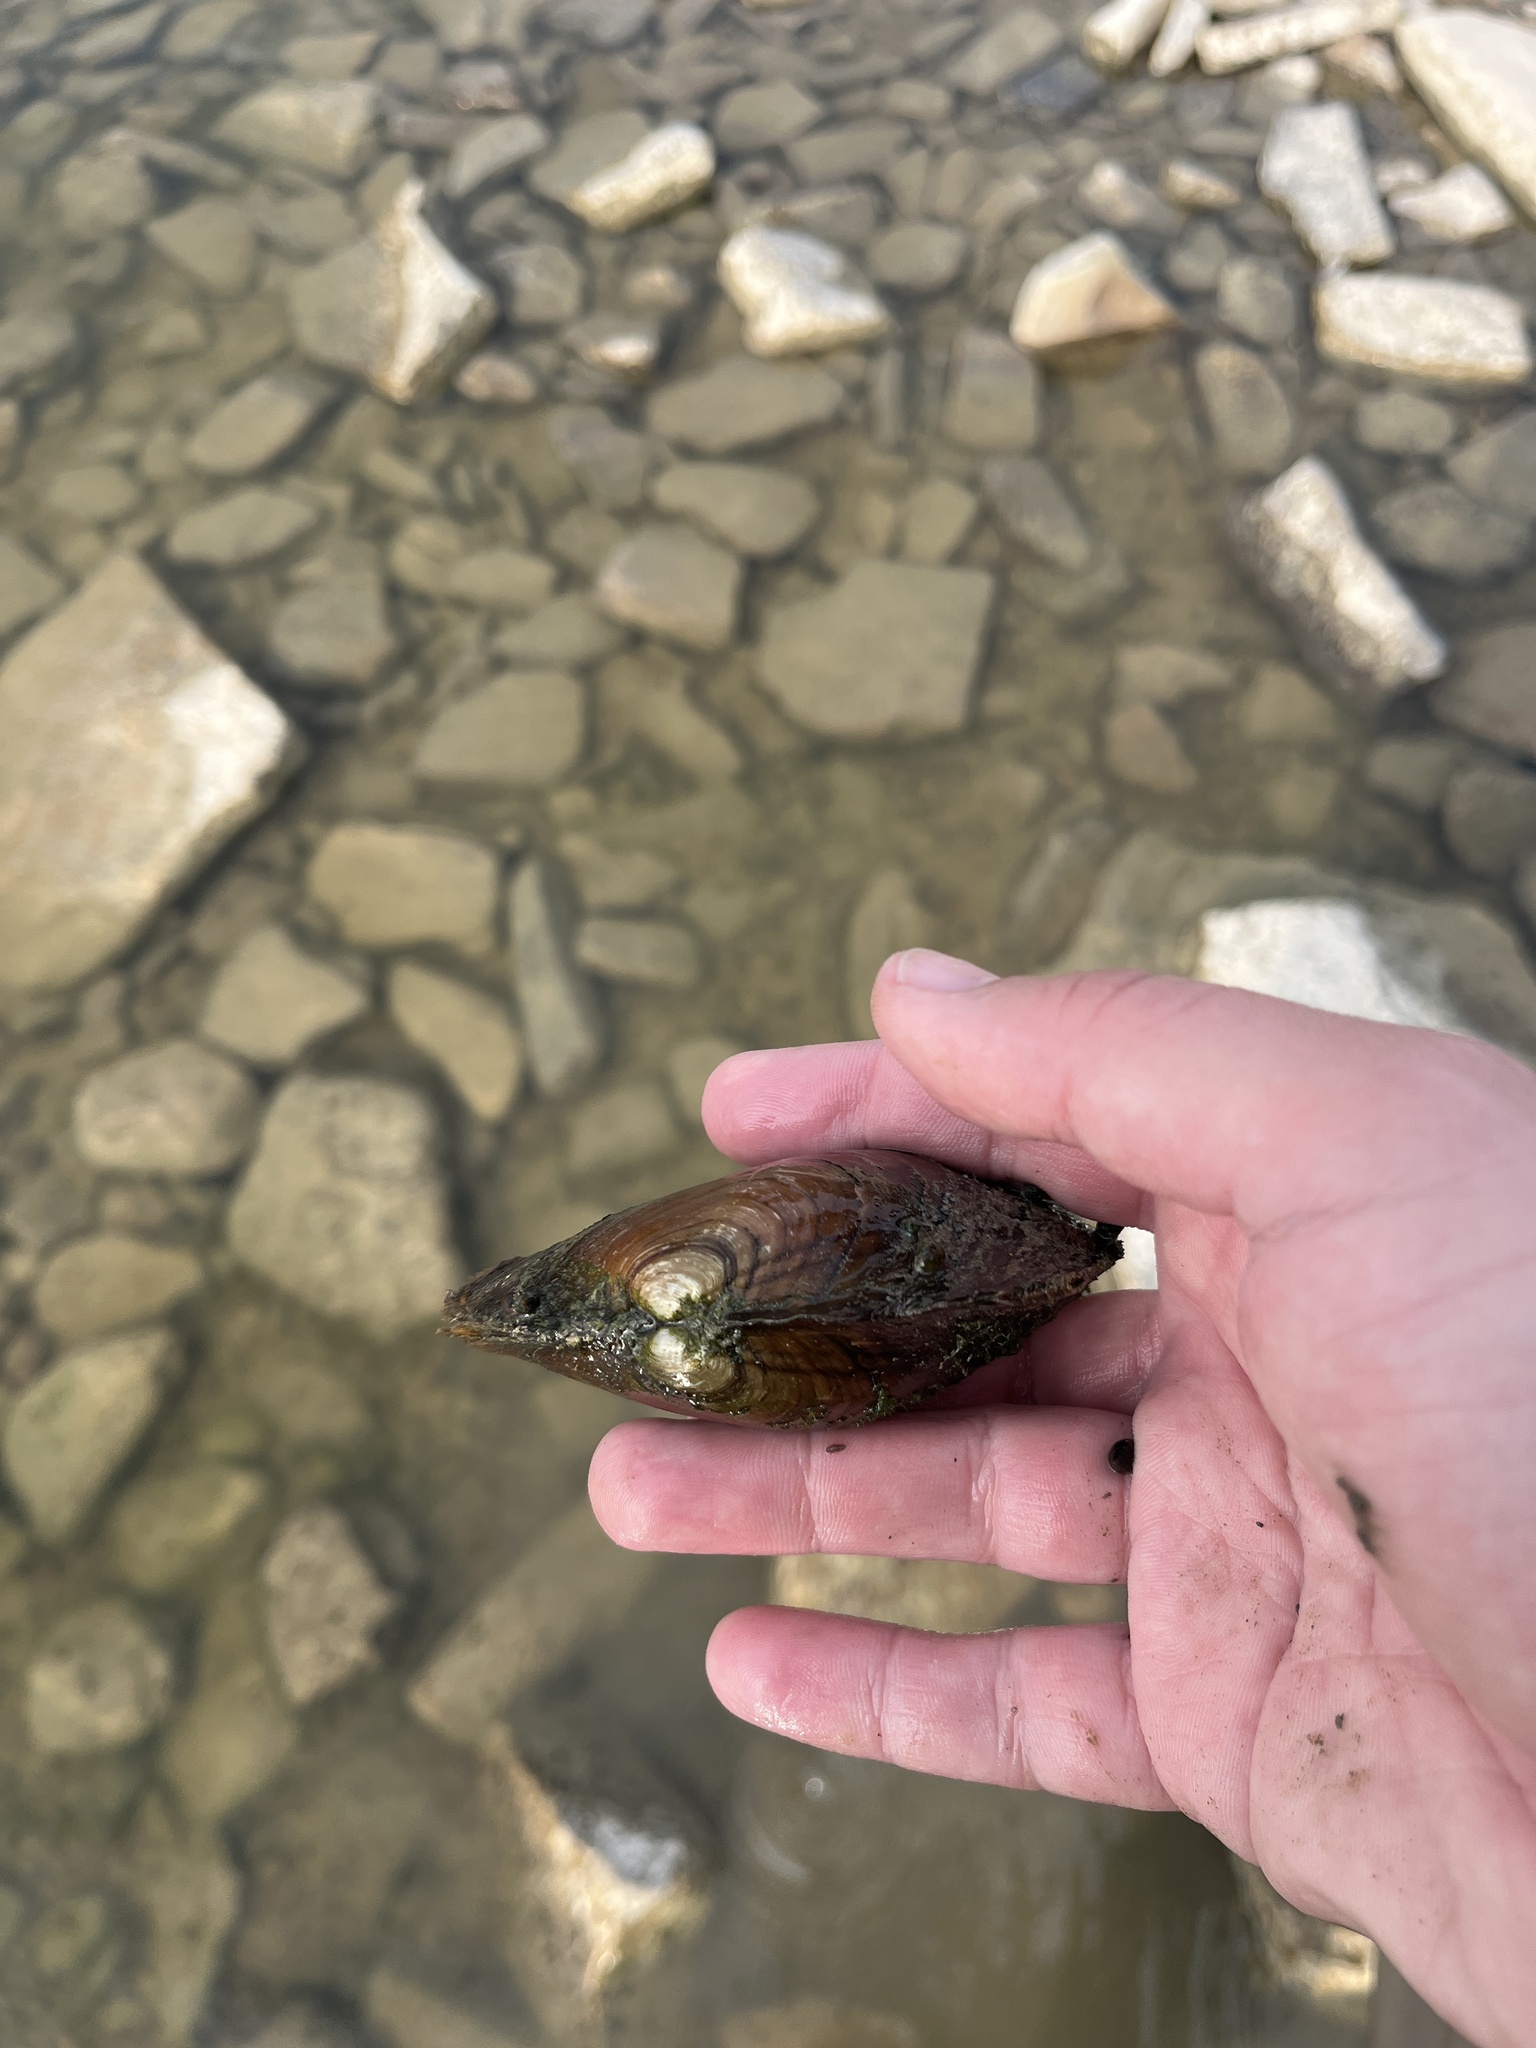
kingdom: Animalia
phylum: Mollusca
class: Bivalvia
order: Unionida
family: Unionidae
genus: Potamilus
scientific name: Potamilus alatus
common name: Pink heelsplitter
